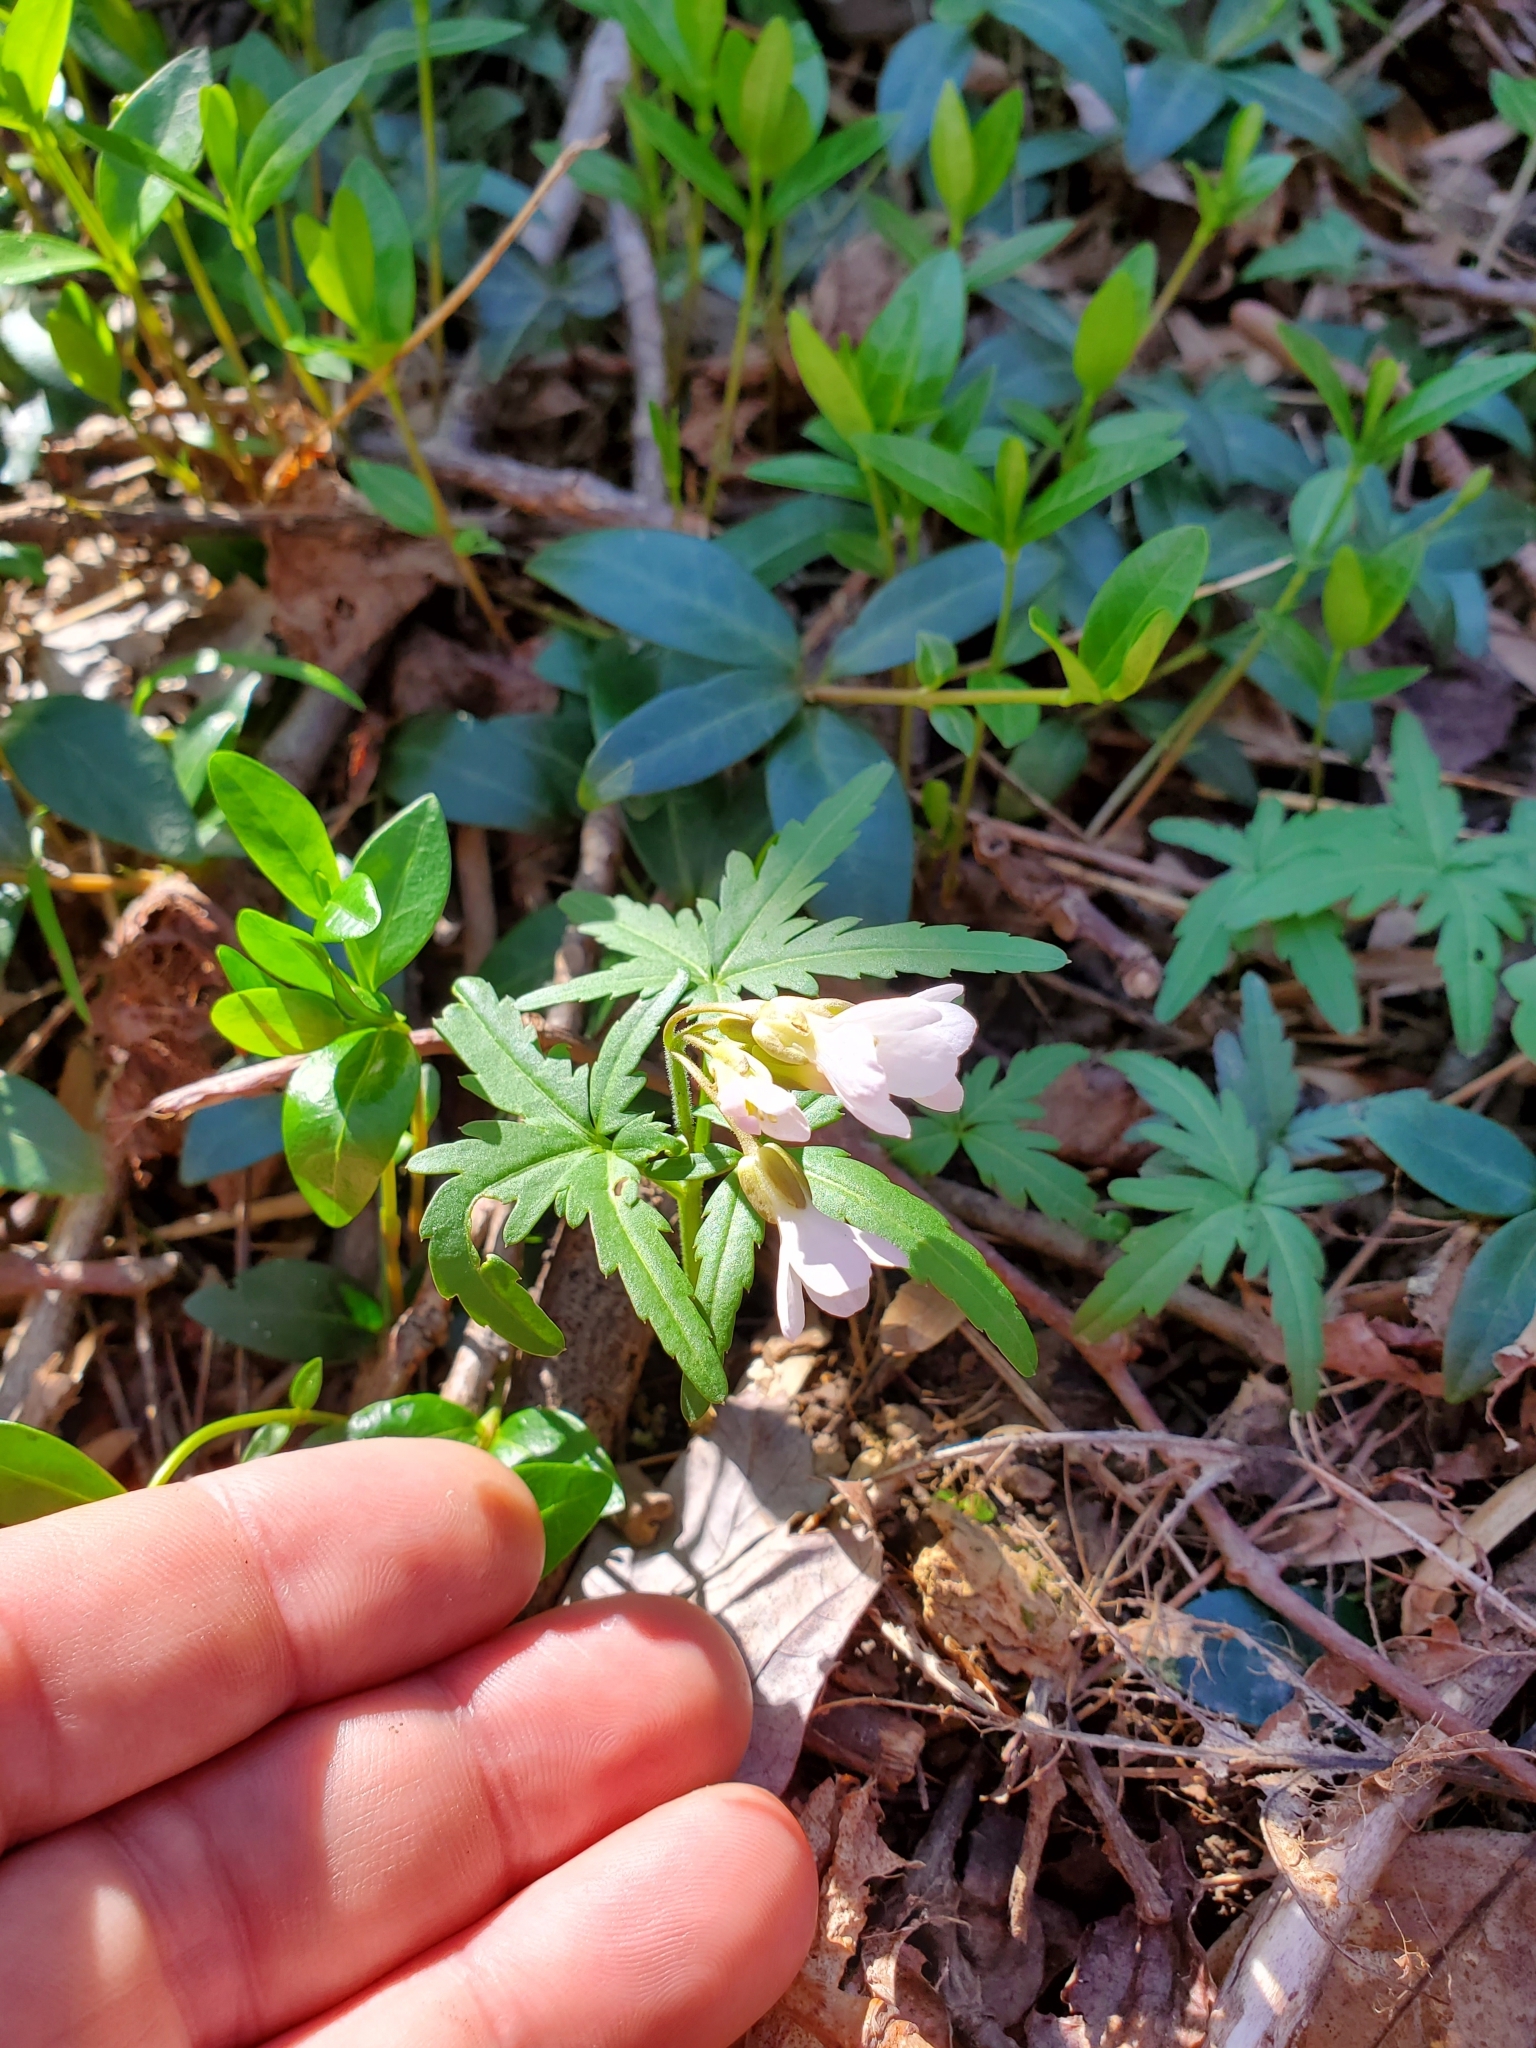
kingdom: Plantae
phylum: Tracheophyta
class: Magnoliopsida
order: Brassicales
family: Brassicaceae
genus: Cardamine
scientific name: Cardamine concatenata
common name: Cut-leaf toothcup
